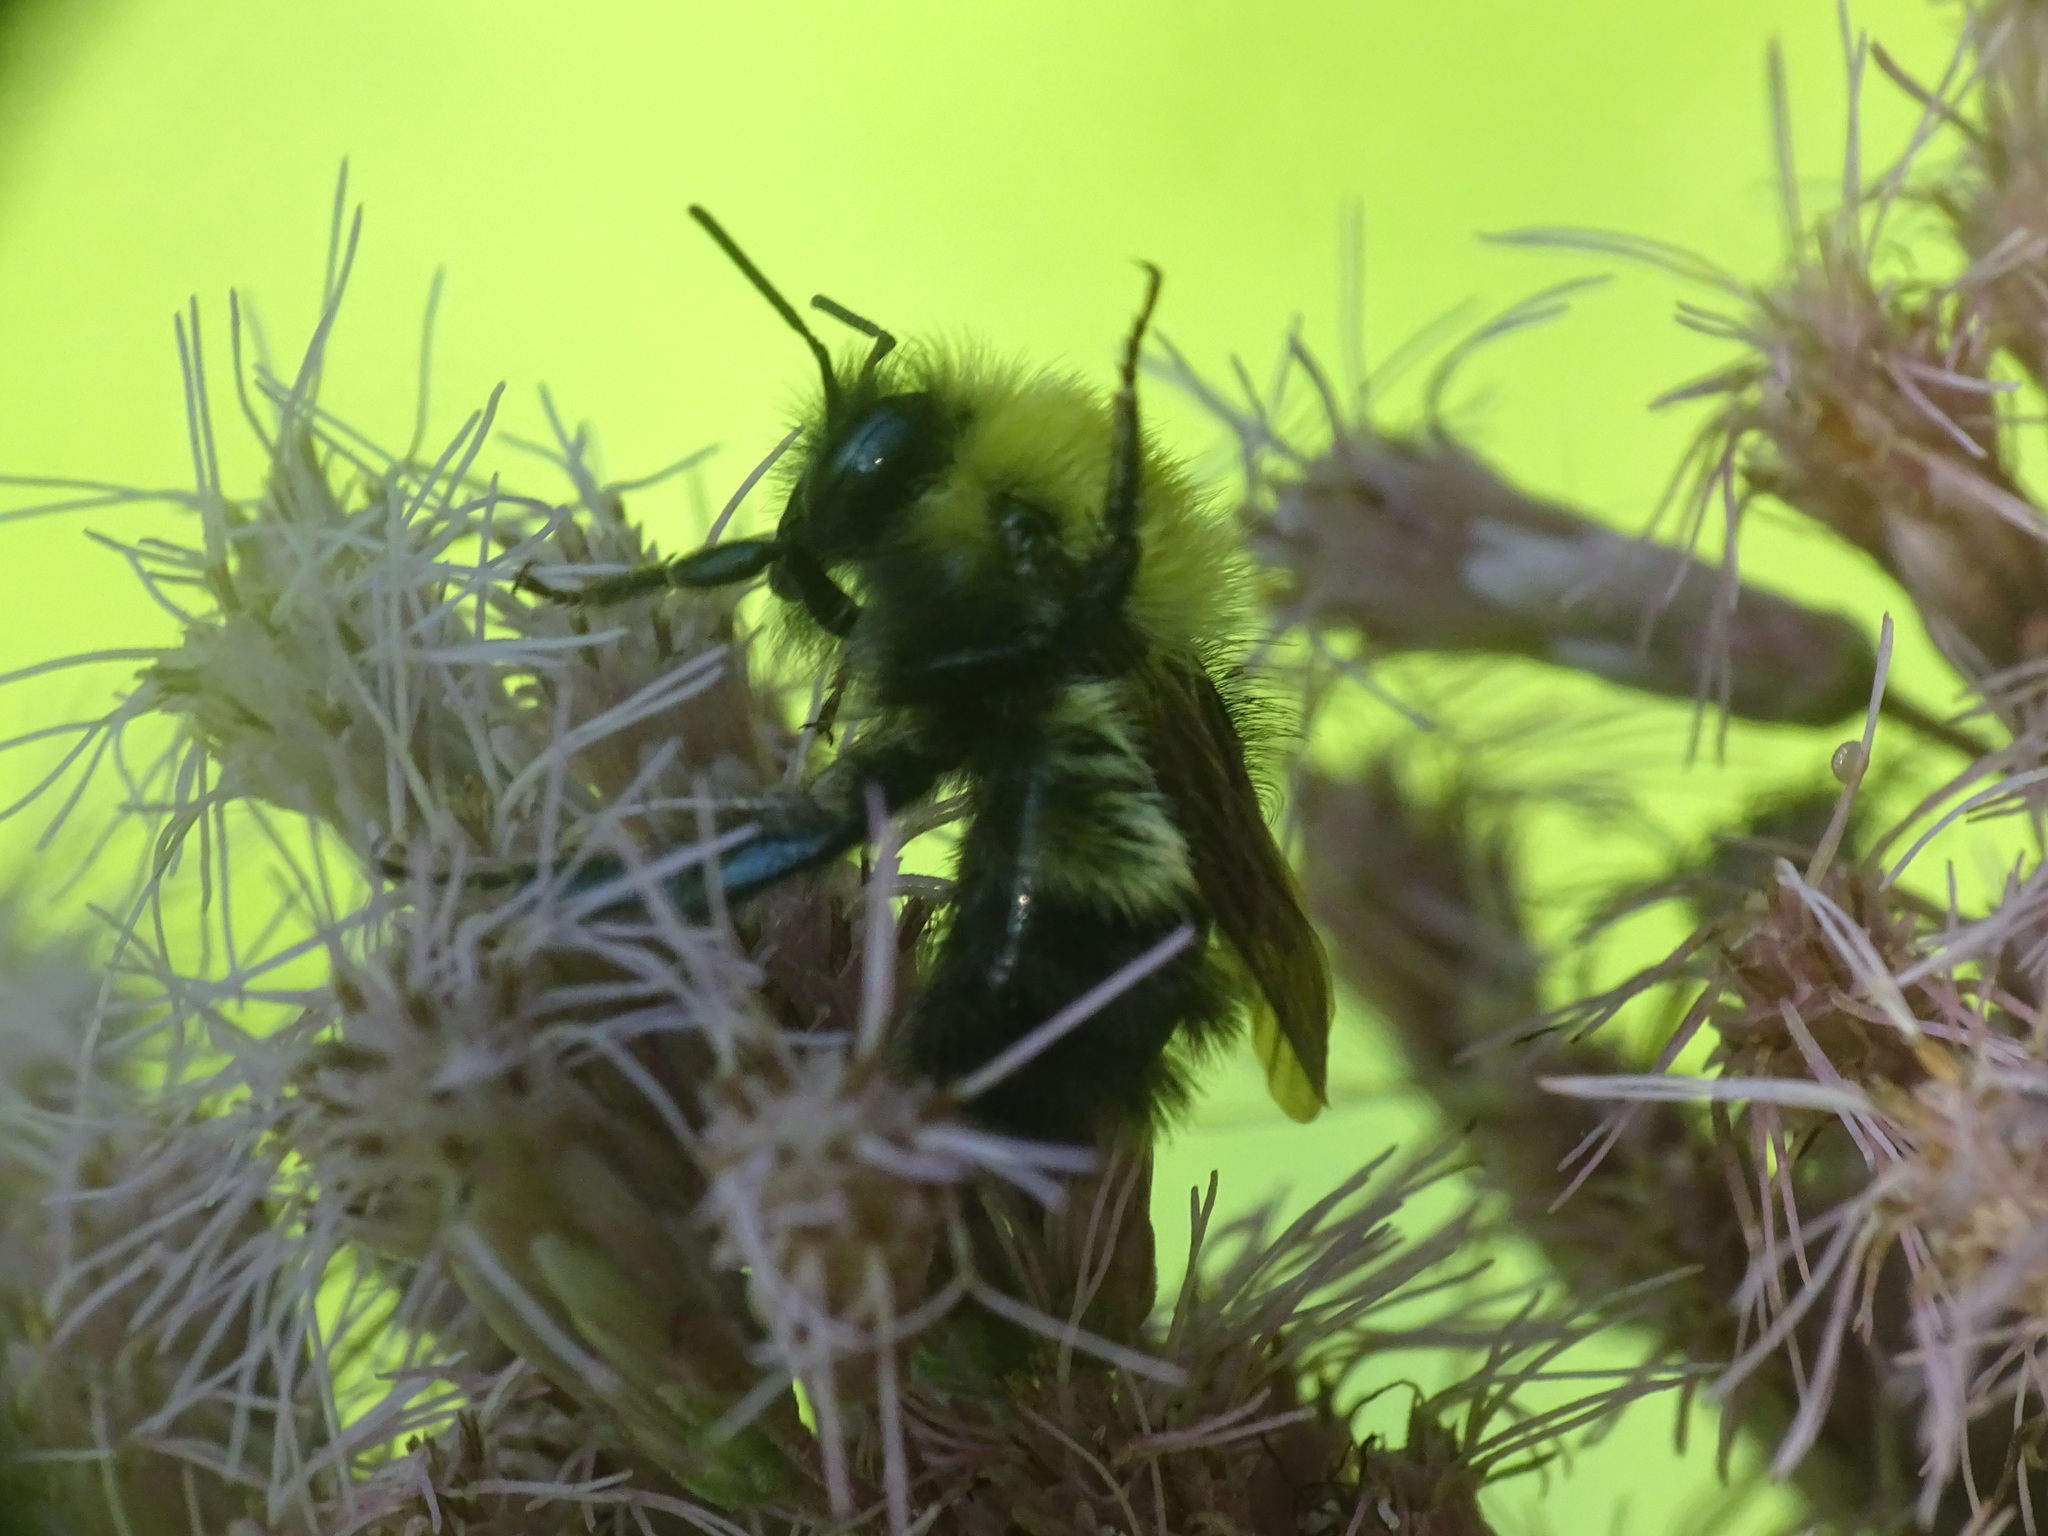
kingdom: Animalia
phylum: Arthropoda
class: Insecta
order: Hymenoptera
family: Apidae
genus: Bombus
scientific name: Bombus perplexus
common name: Confusing bumble bee
